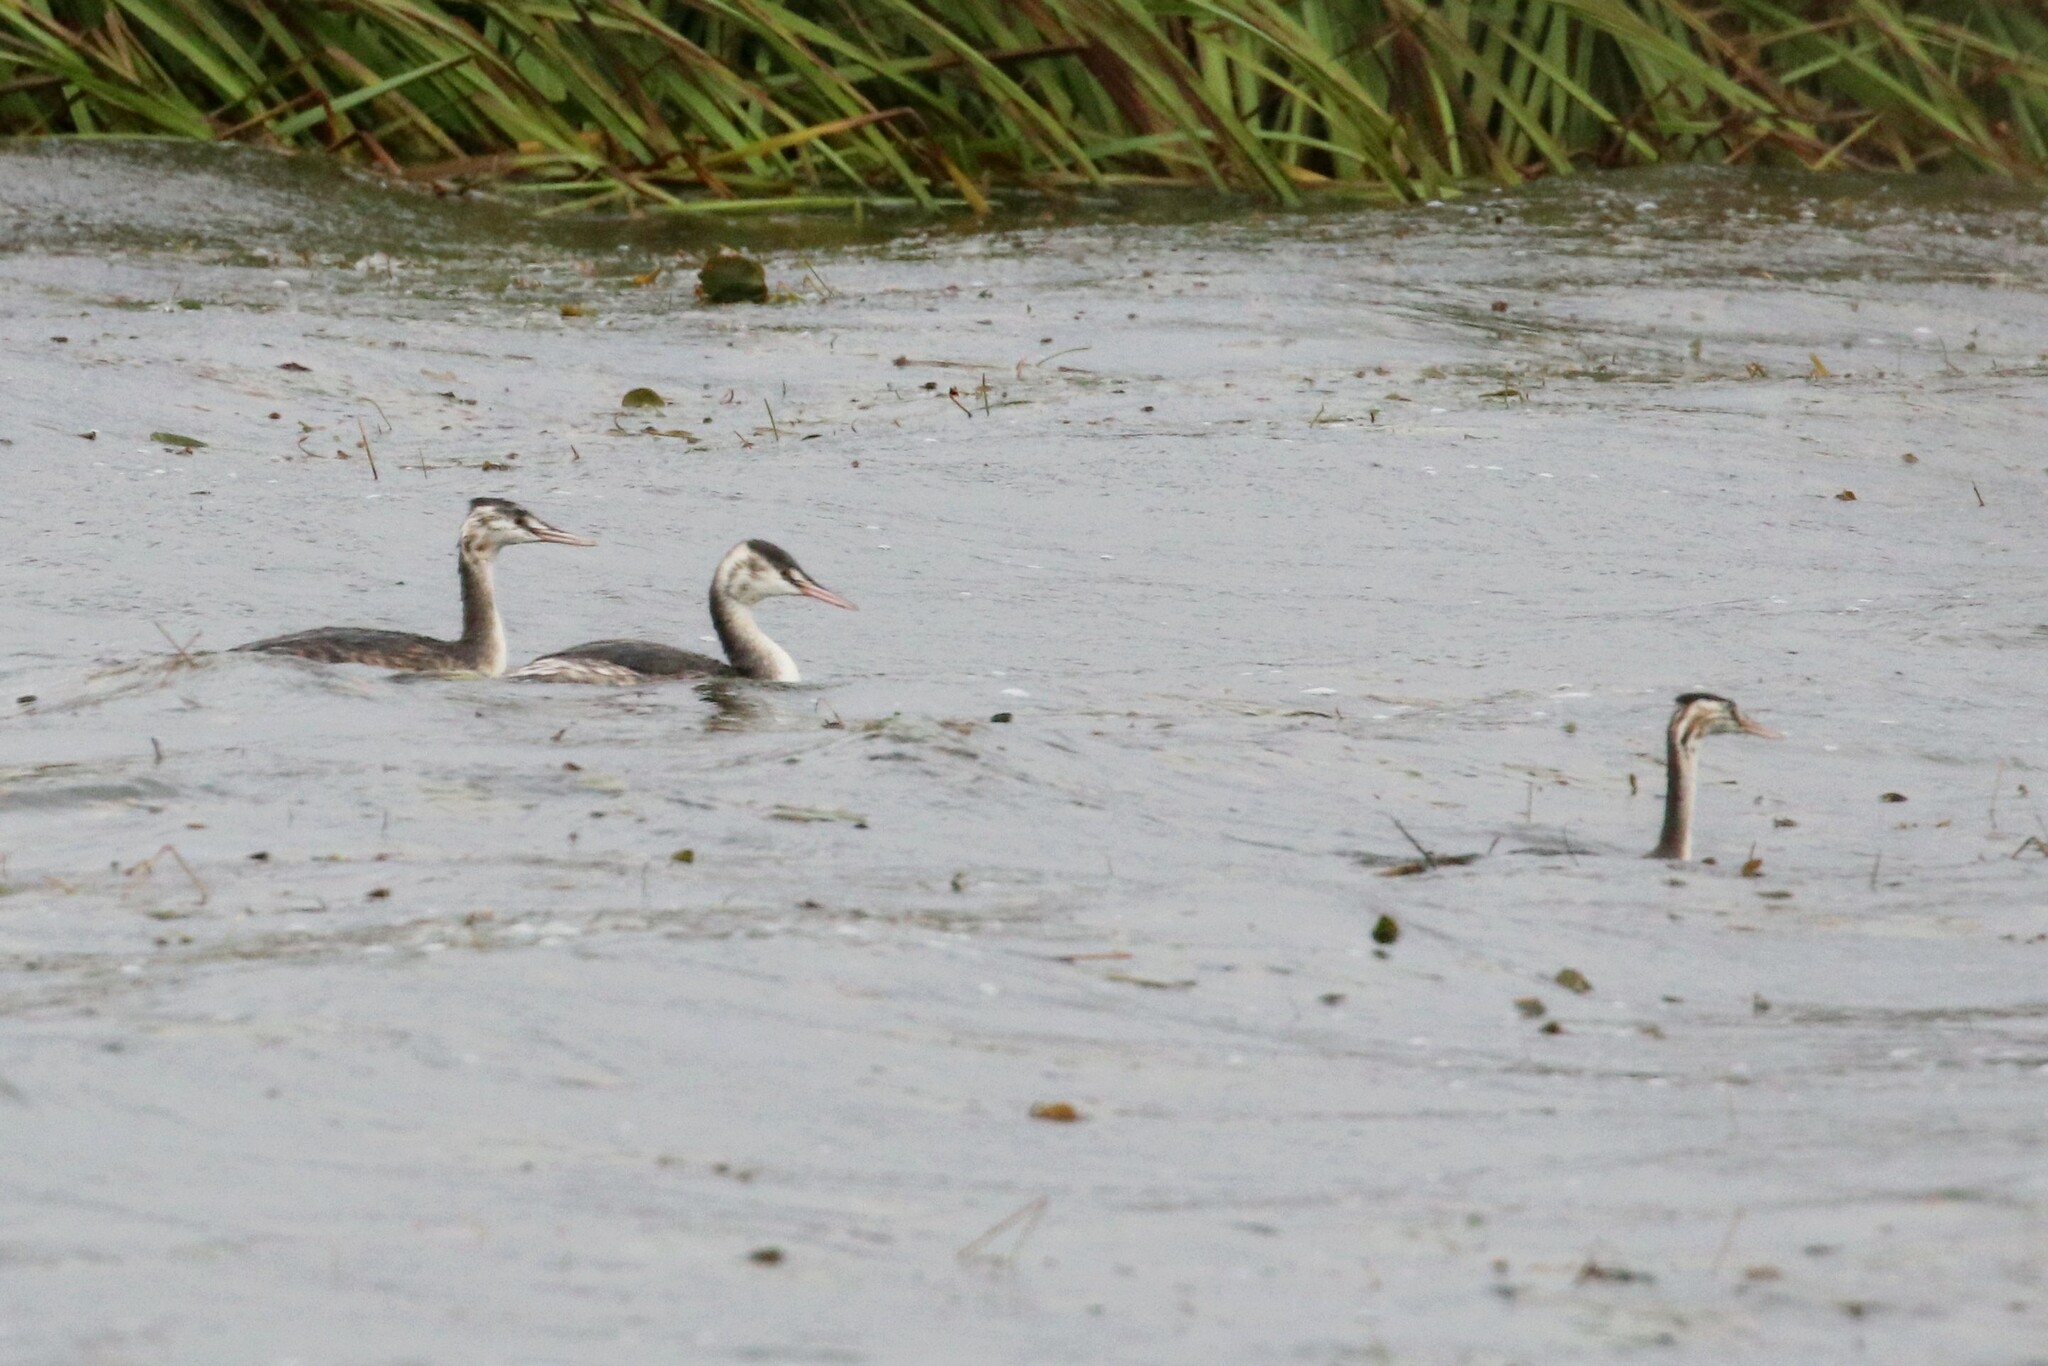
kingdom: Animalia
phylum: Chordata
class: Aves
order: Podicipediformes
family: Podicipedidae
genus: Podiceps
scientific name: Podiceps cristatus
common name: Great crested grebe
